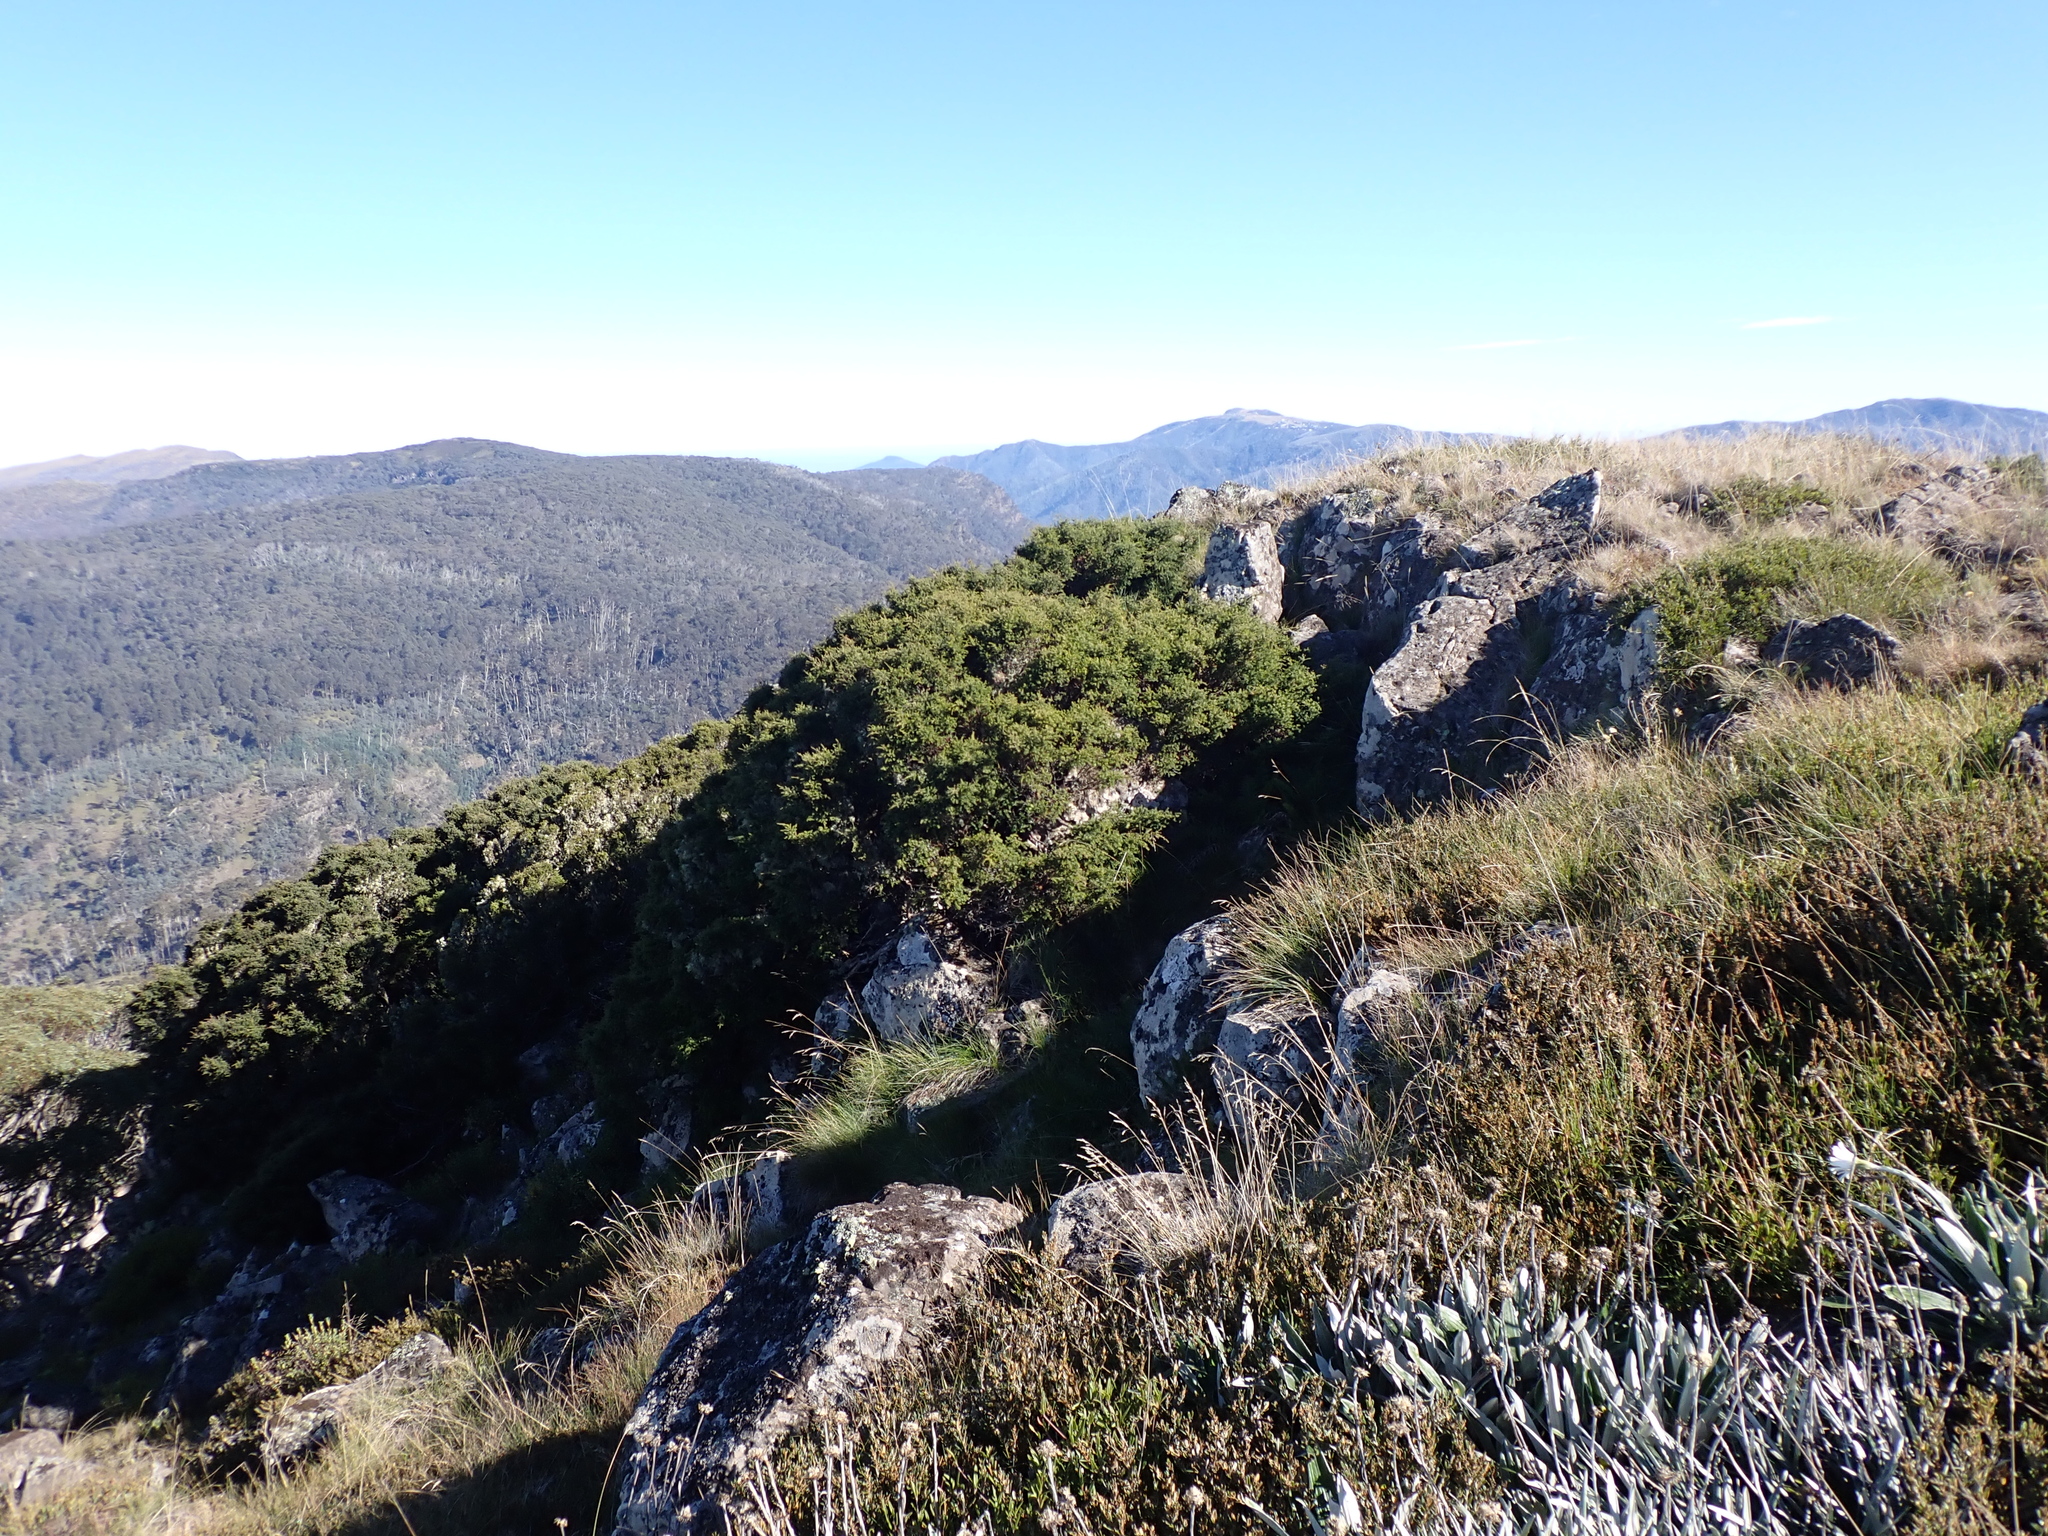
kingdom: Plantae
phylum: Tracheophyta
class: Pinopsida
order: Pinales
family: Podocarpaceae
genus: Podocarpus
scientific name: Podocarpus lawrencei
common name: Mountain plum pine
